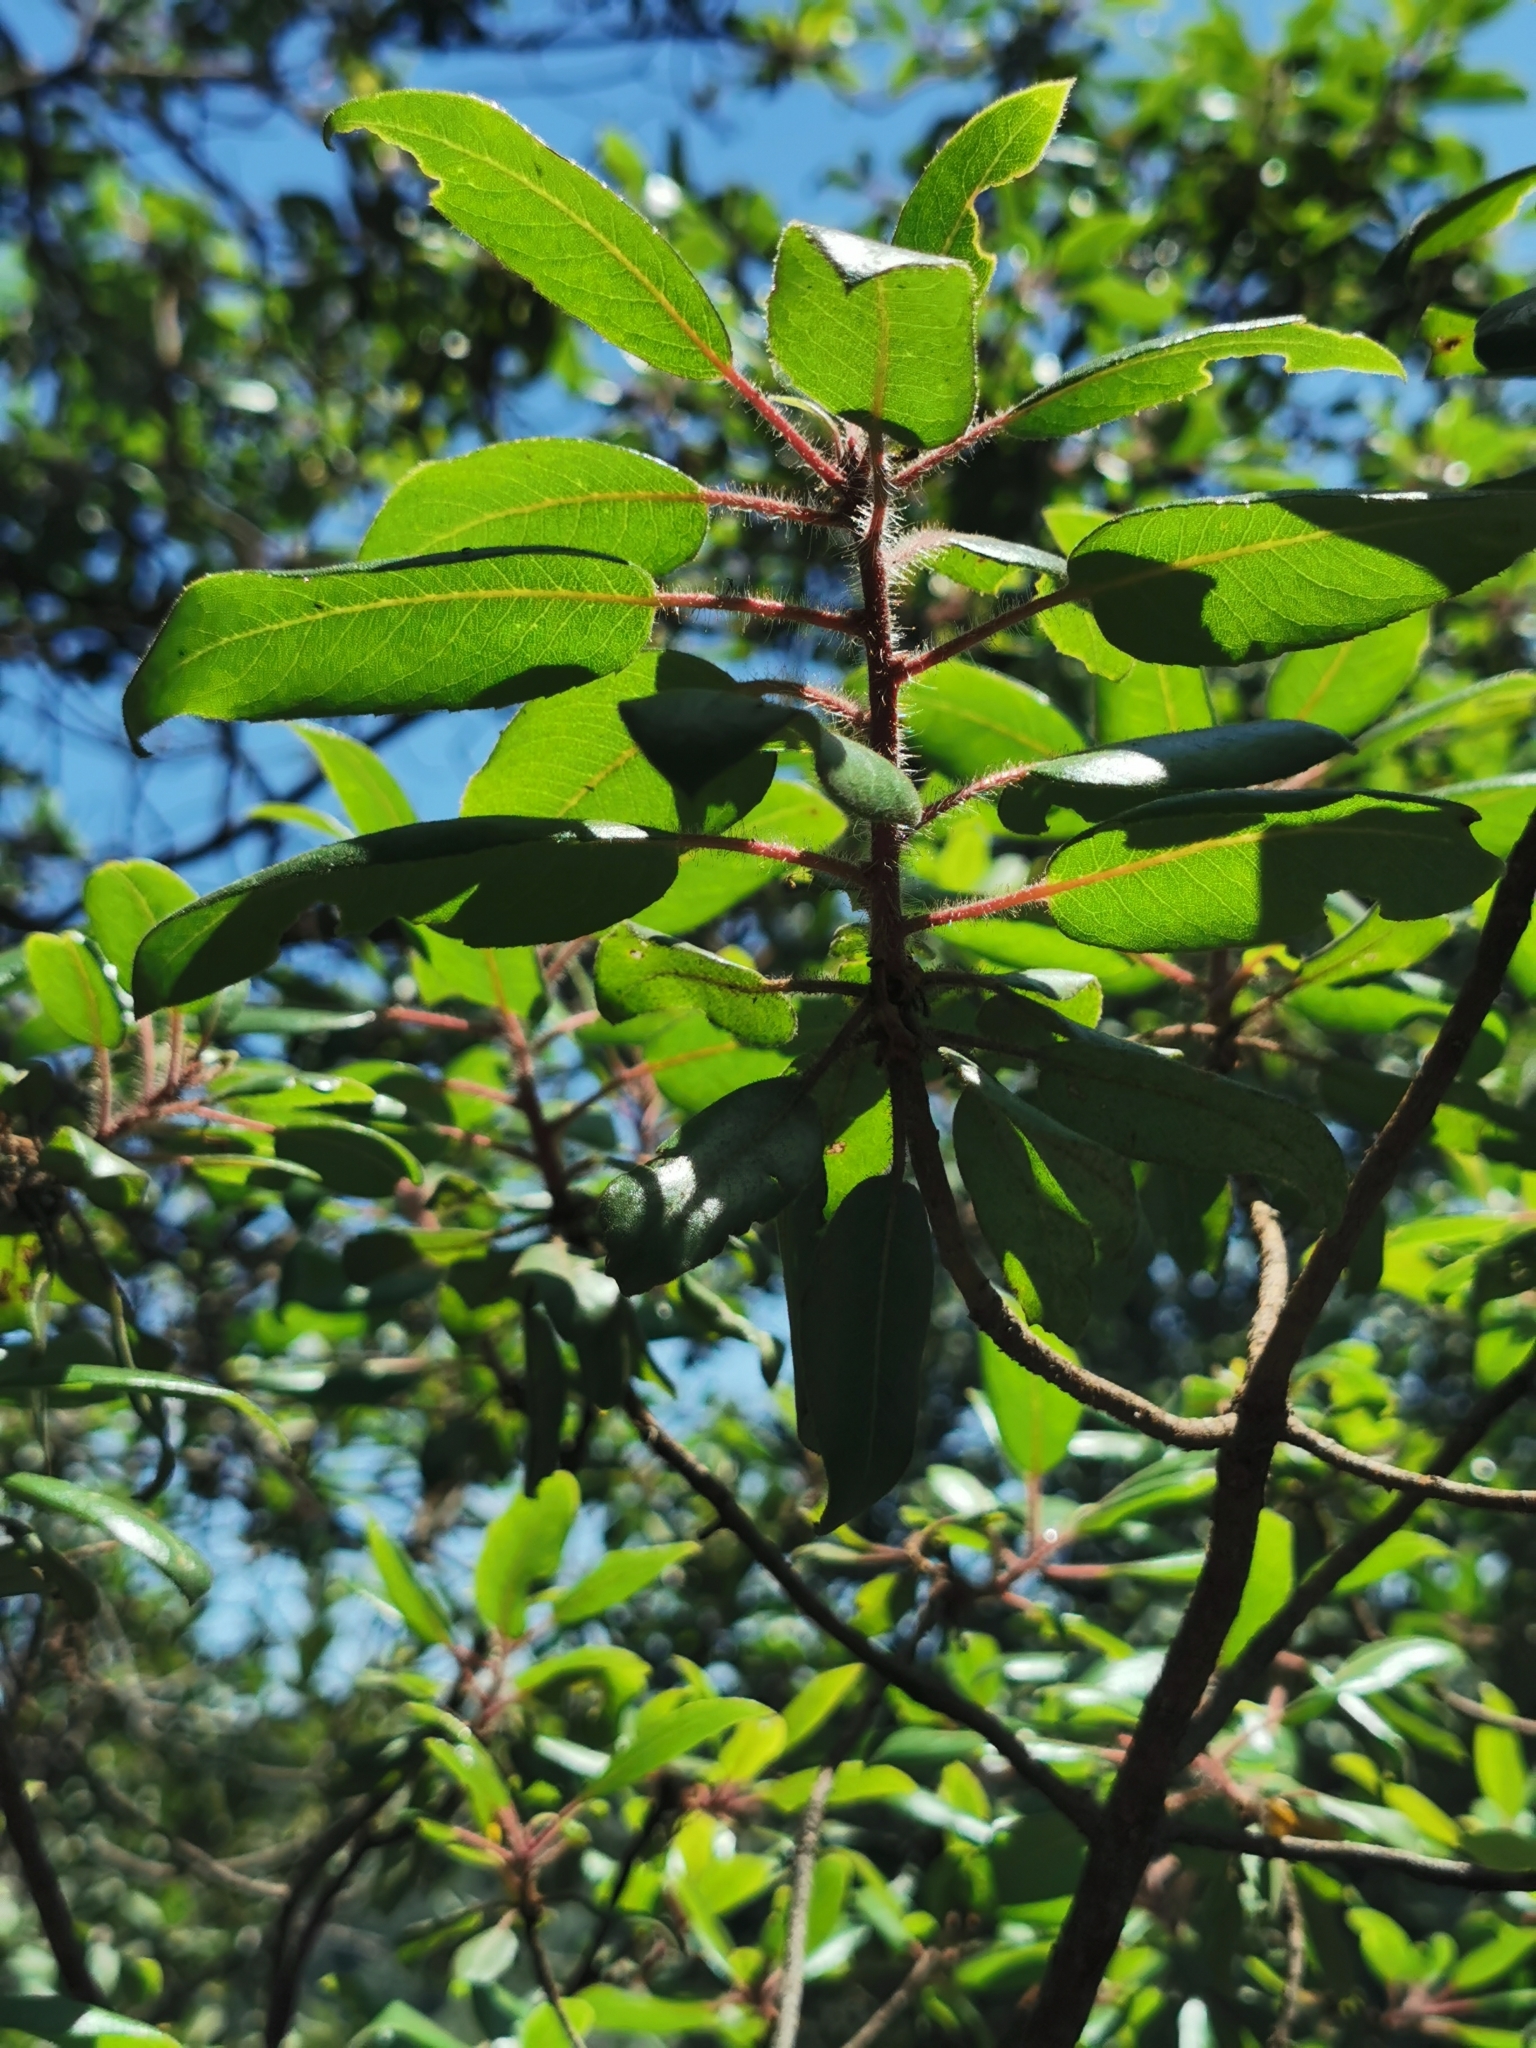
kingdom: Plantae
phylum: Tracheophyta
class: Magnoliopsida
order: Ericales
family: Ericaceae
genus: Arbutus
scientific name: Arbutus tessellata
